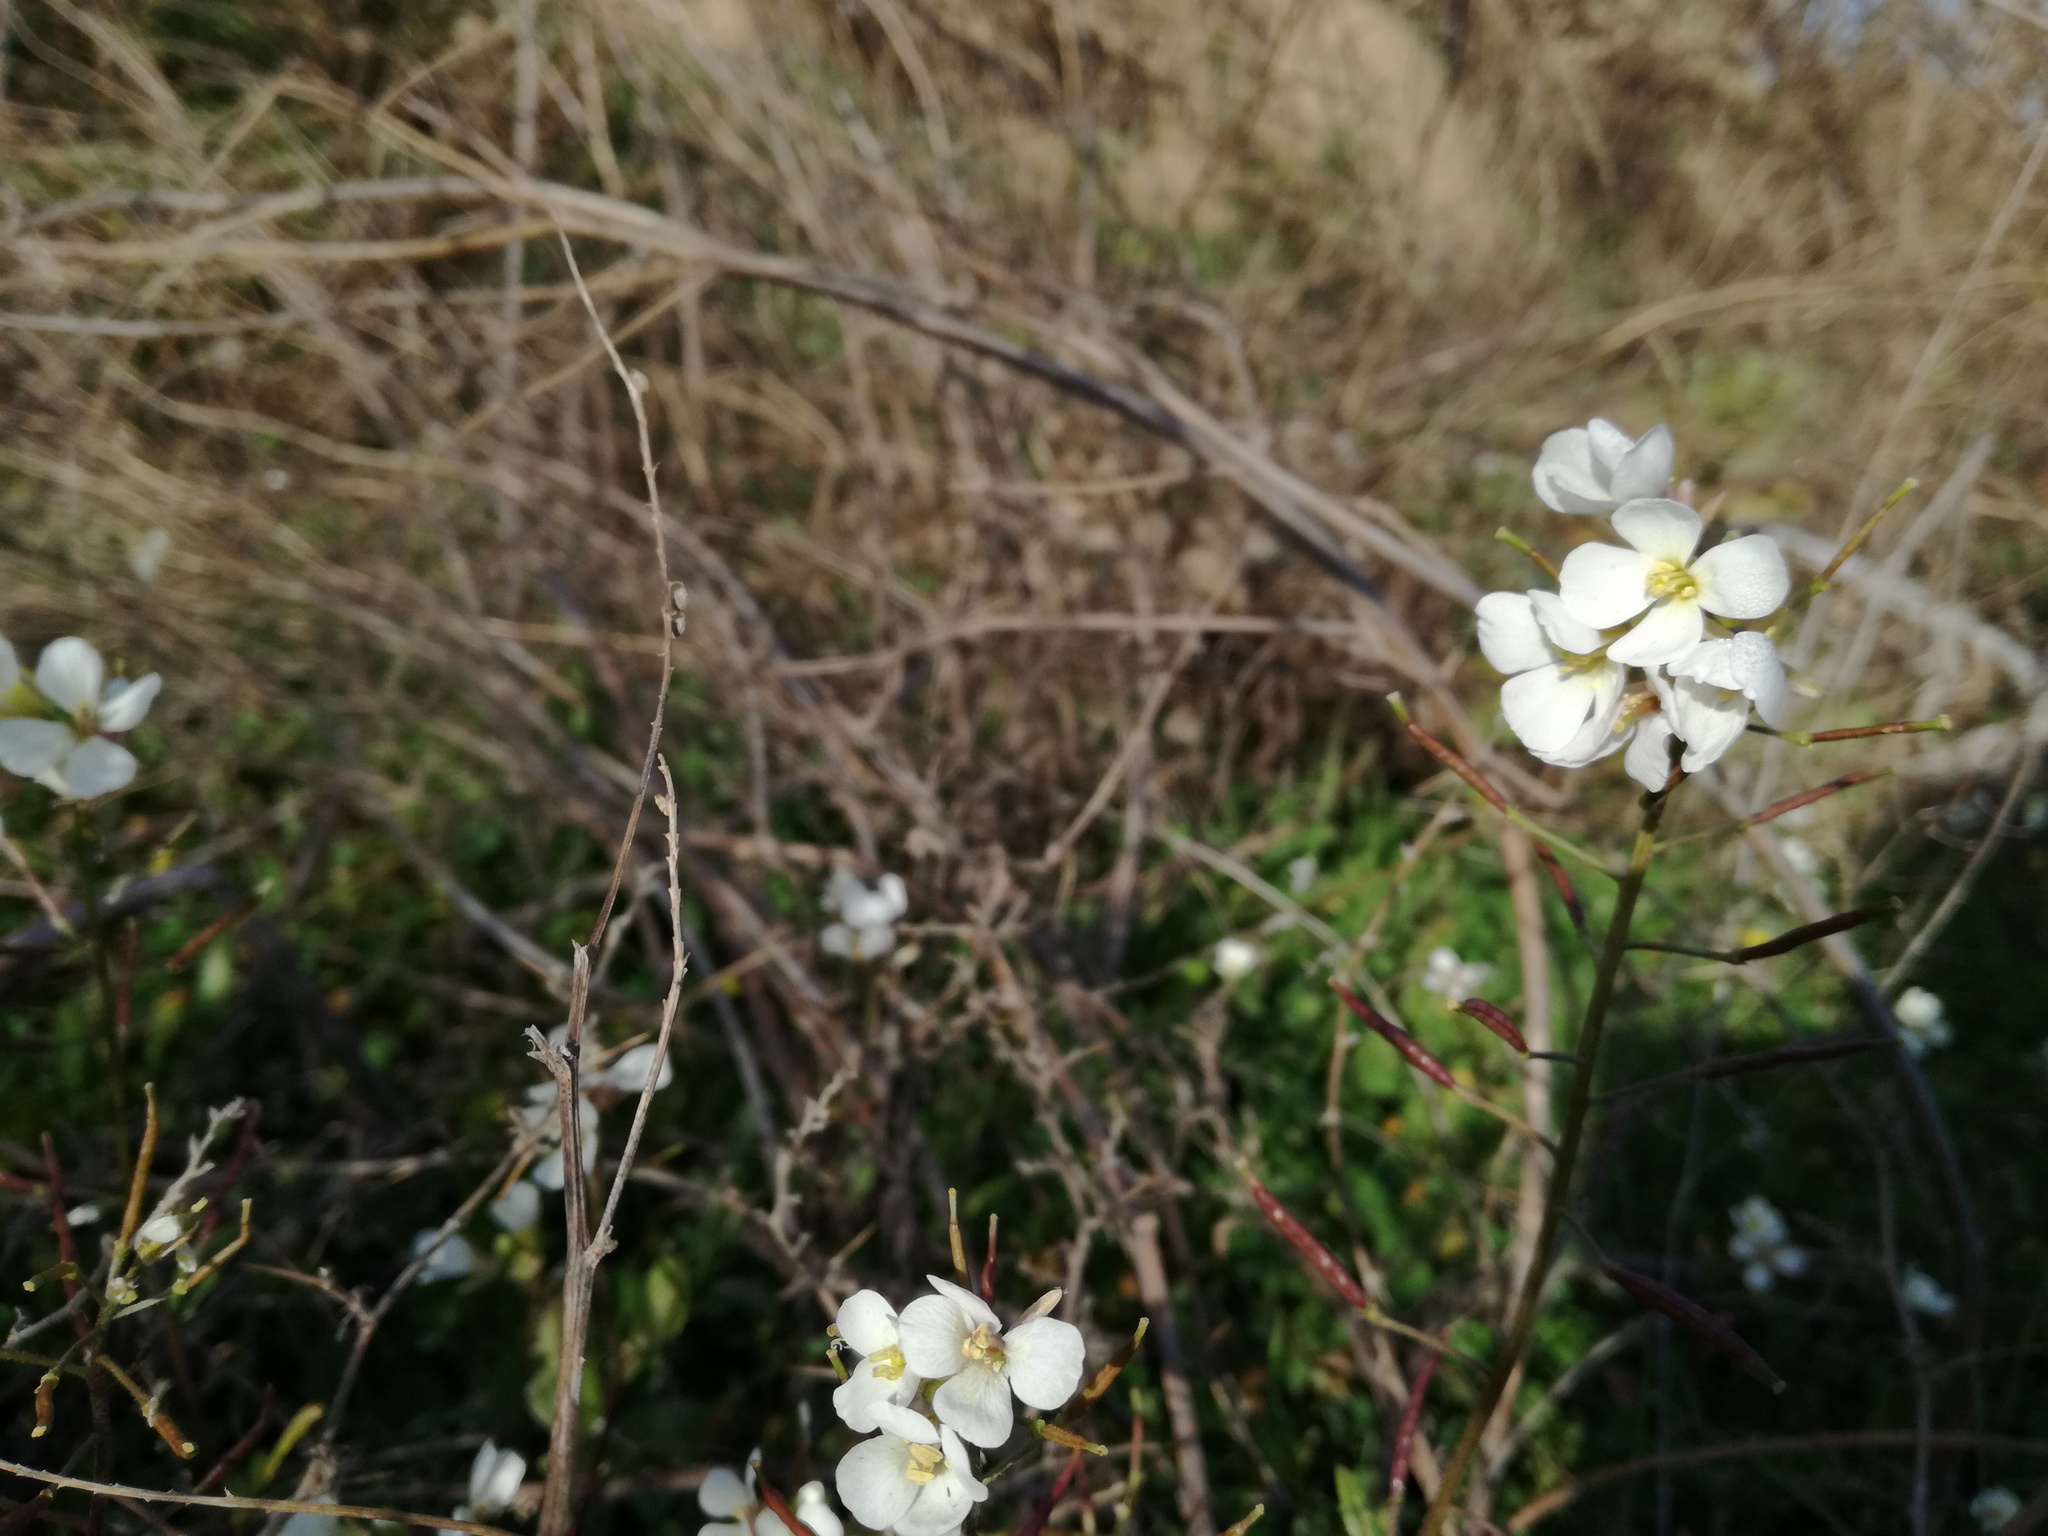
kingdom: Plantae
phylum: Tracheophyta
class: Magnoliopsida
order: Brassicales
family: Brassicaceae
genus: Diplotaxis
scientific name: Diplotaxis erucoides
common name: White rocket
